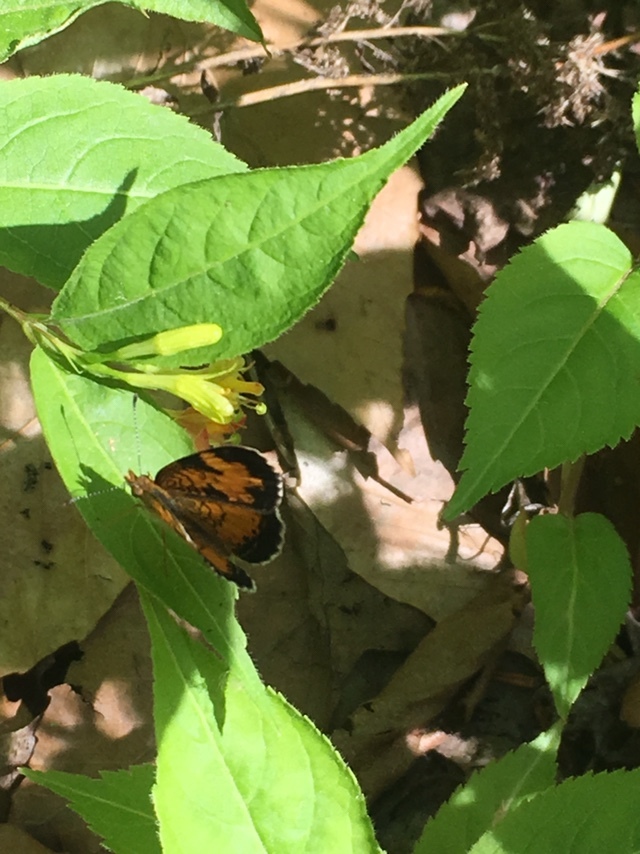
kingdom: Animalia
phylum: Arthropoda
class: Insecta
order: Lepidoptera
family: Nymphalidae
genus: Phyciodes
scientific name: Phyciodes tharos
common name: Pearl crescent
